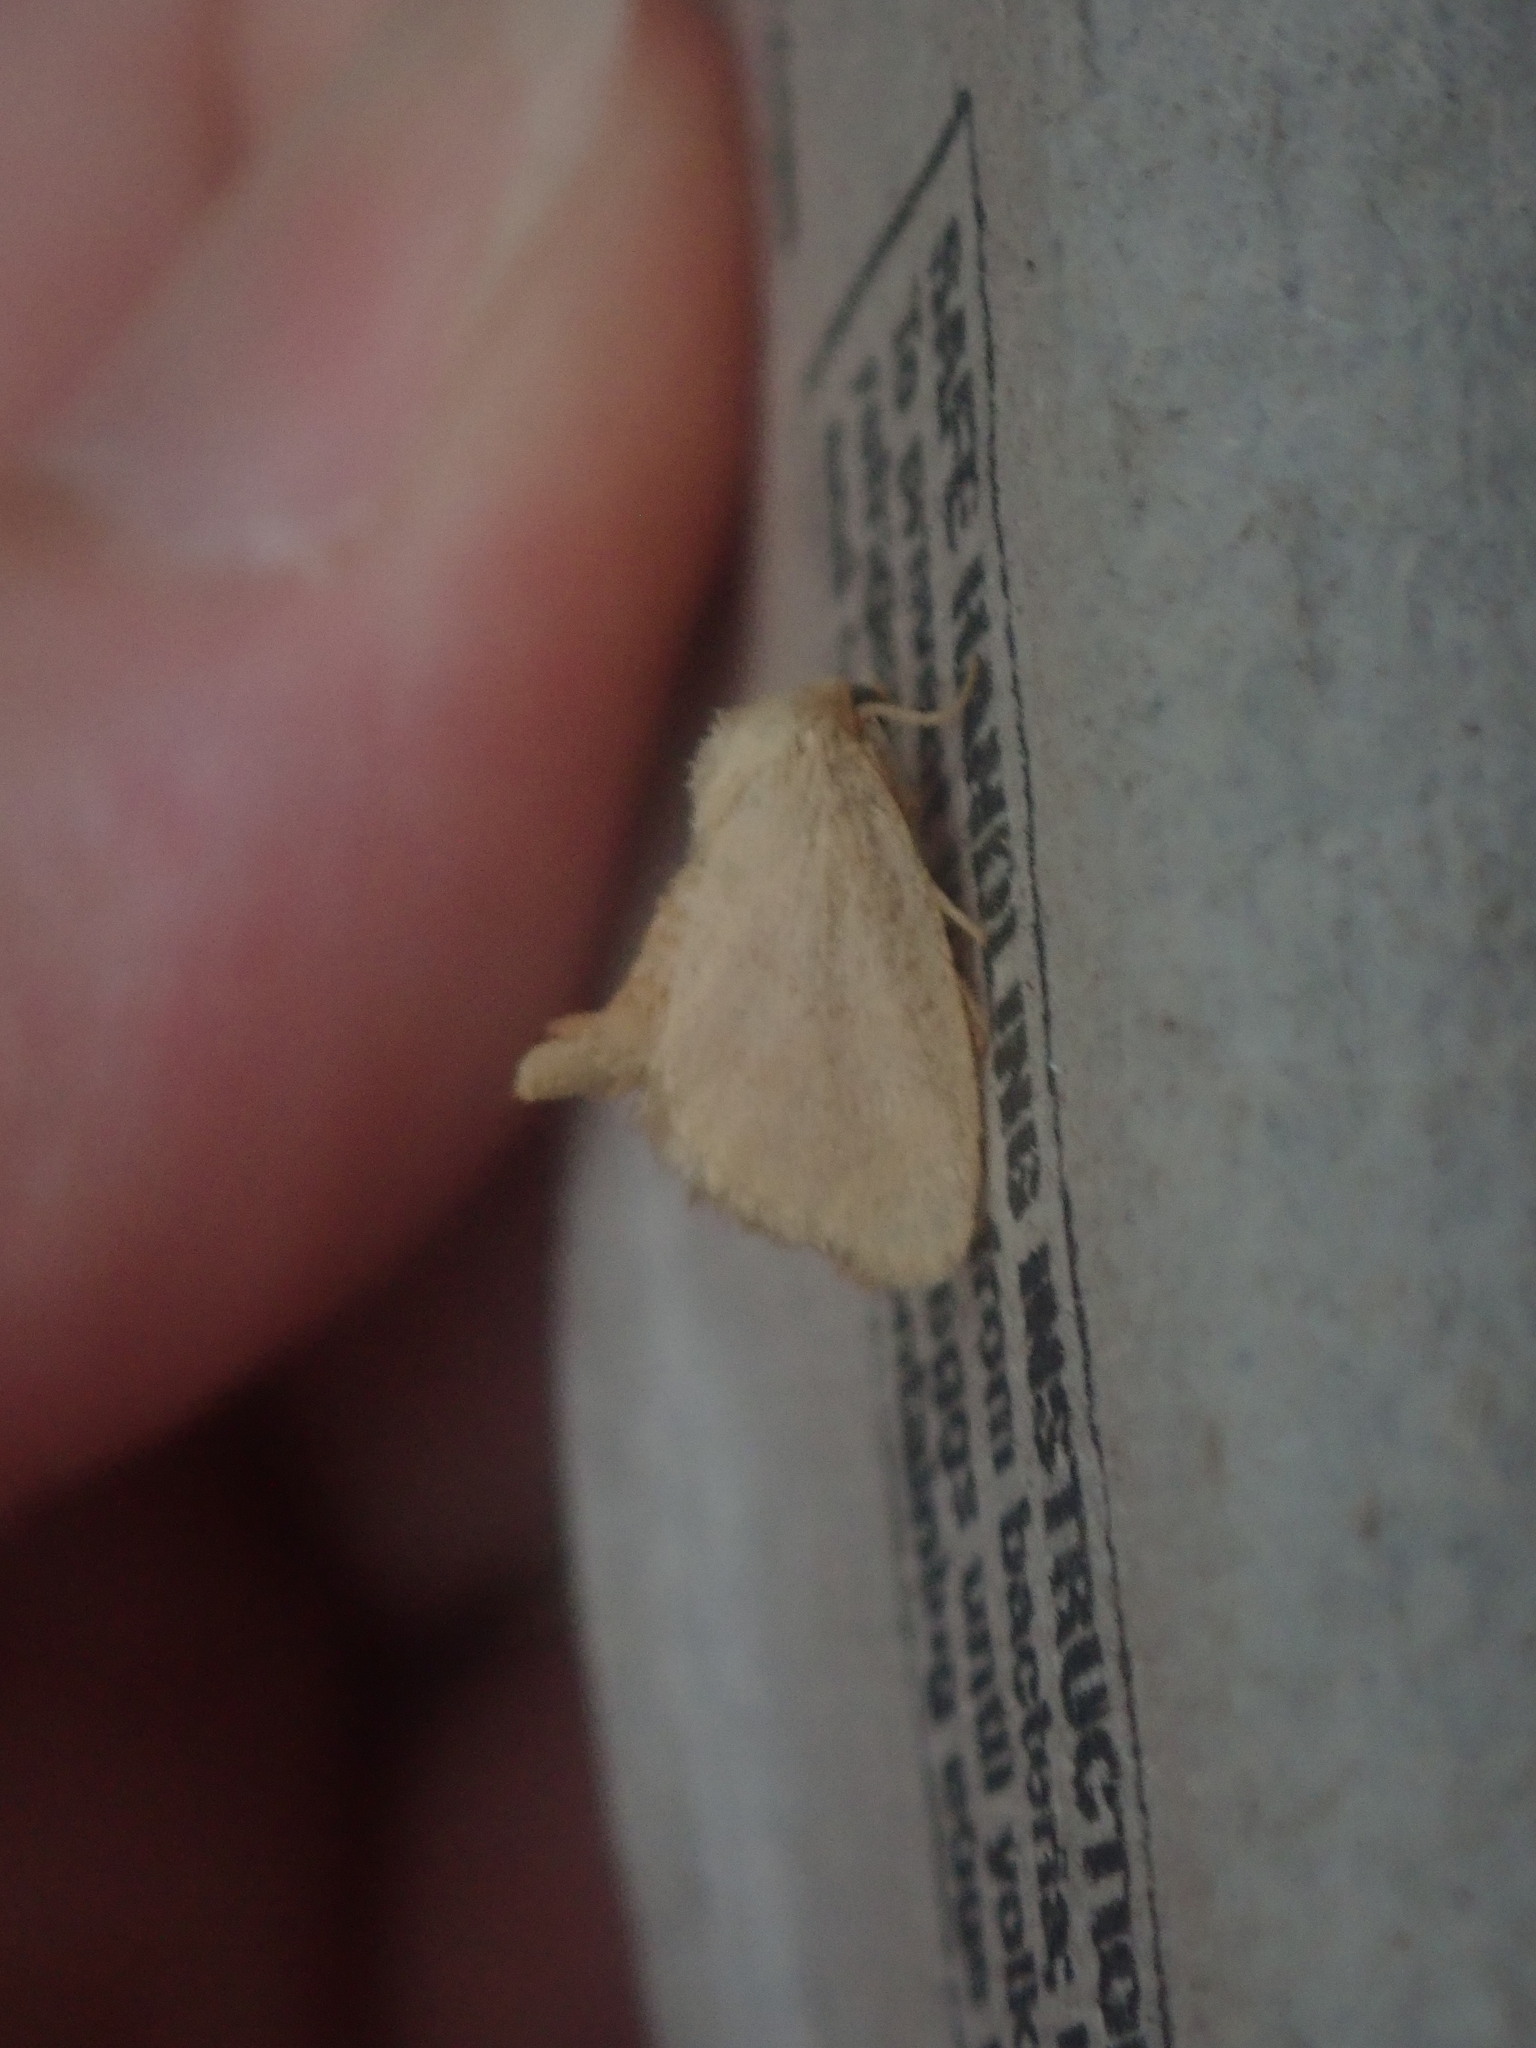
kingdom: Animalia
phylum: Arthropoda
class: Insecta
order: Lepidoptera
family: Limacodidae
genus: Tortricidia
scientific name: Tortricidia pallida
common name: Red-crossed button slug moth
